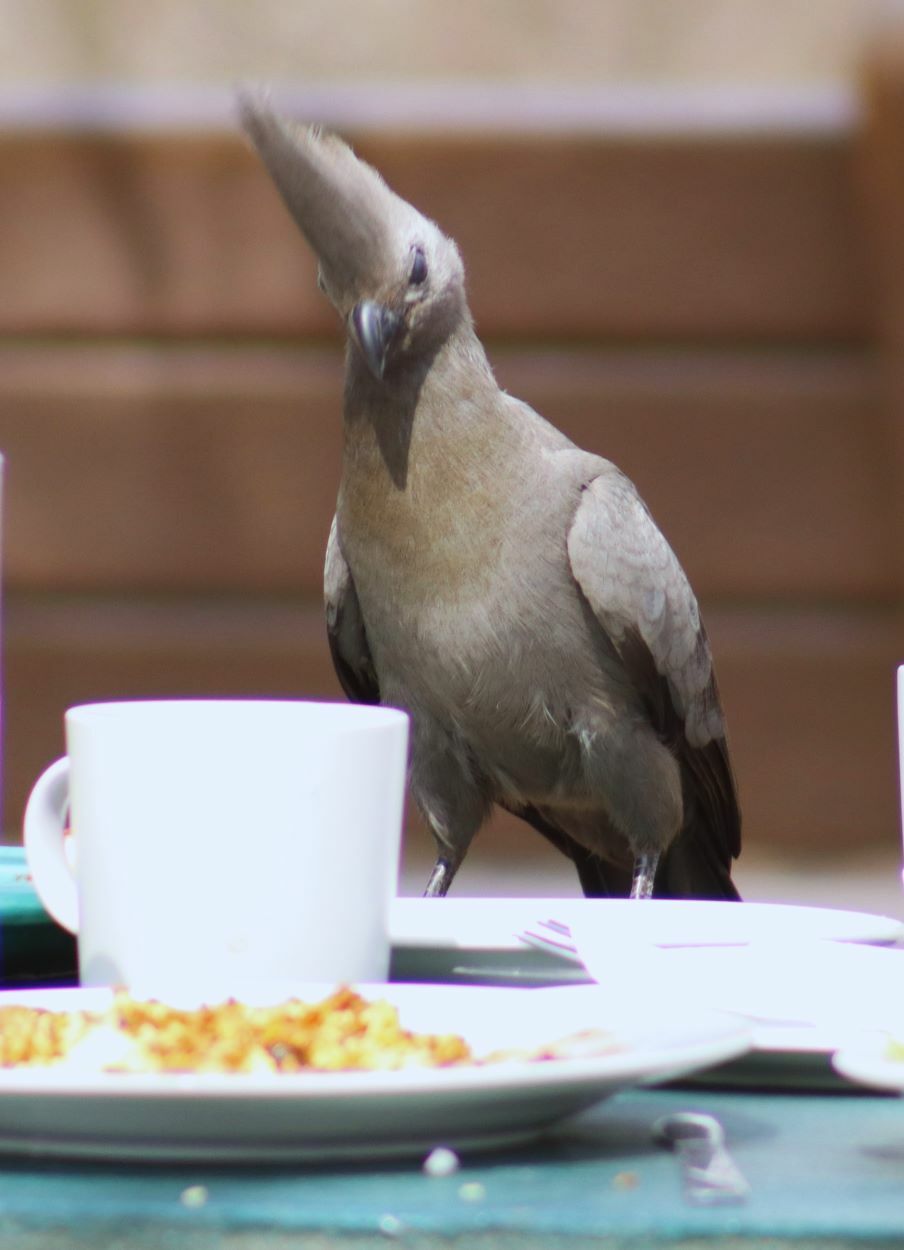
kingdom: Animalia
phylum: Chordata
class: Aves
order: Musophagiformes
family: Musophagidae
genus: Corythaixoides
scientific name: Corythaixoides concolor
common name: Grey go-away-bird
